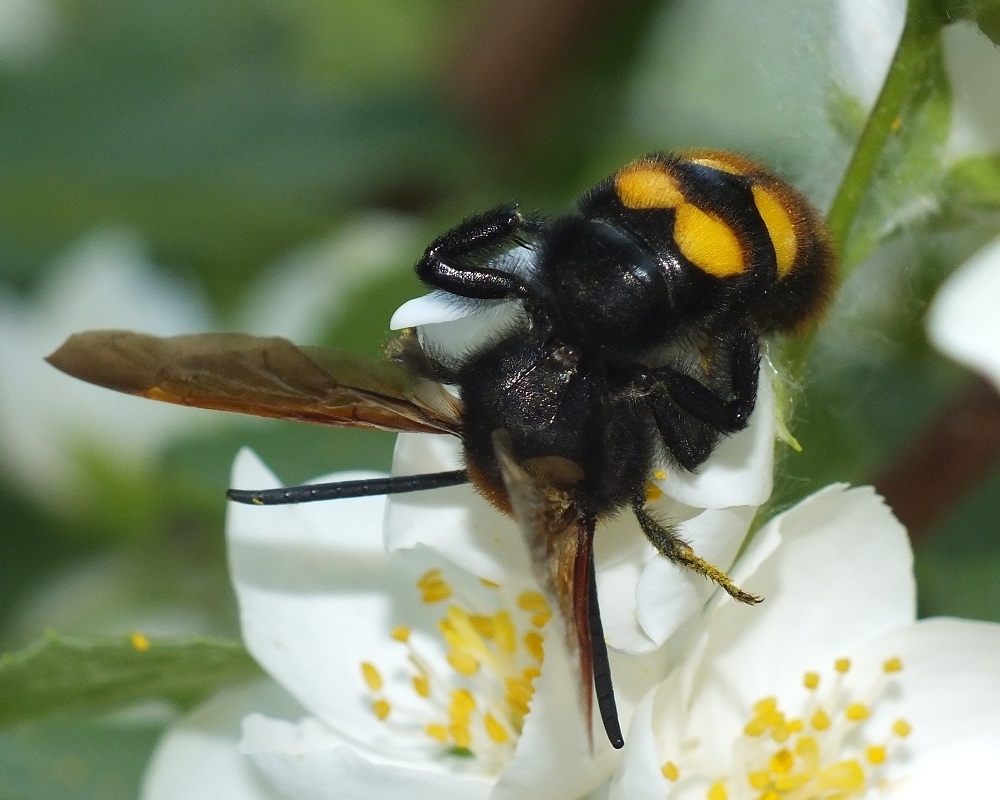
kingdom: Animalia
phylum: Arthropoda
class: Insecta
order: Hymenoptera
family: Scoliidae
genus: Megascolia
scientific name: Megascolia maculata
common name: Mammoth wasp
